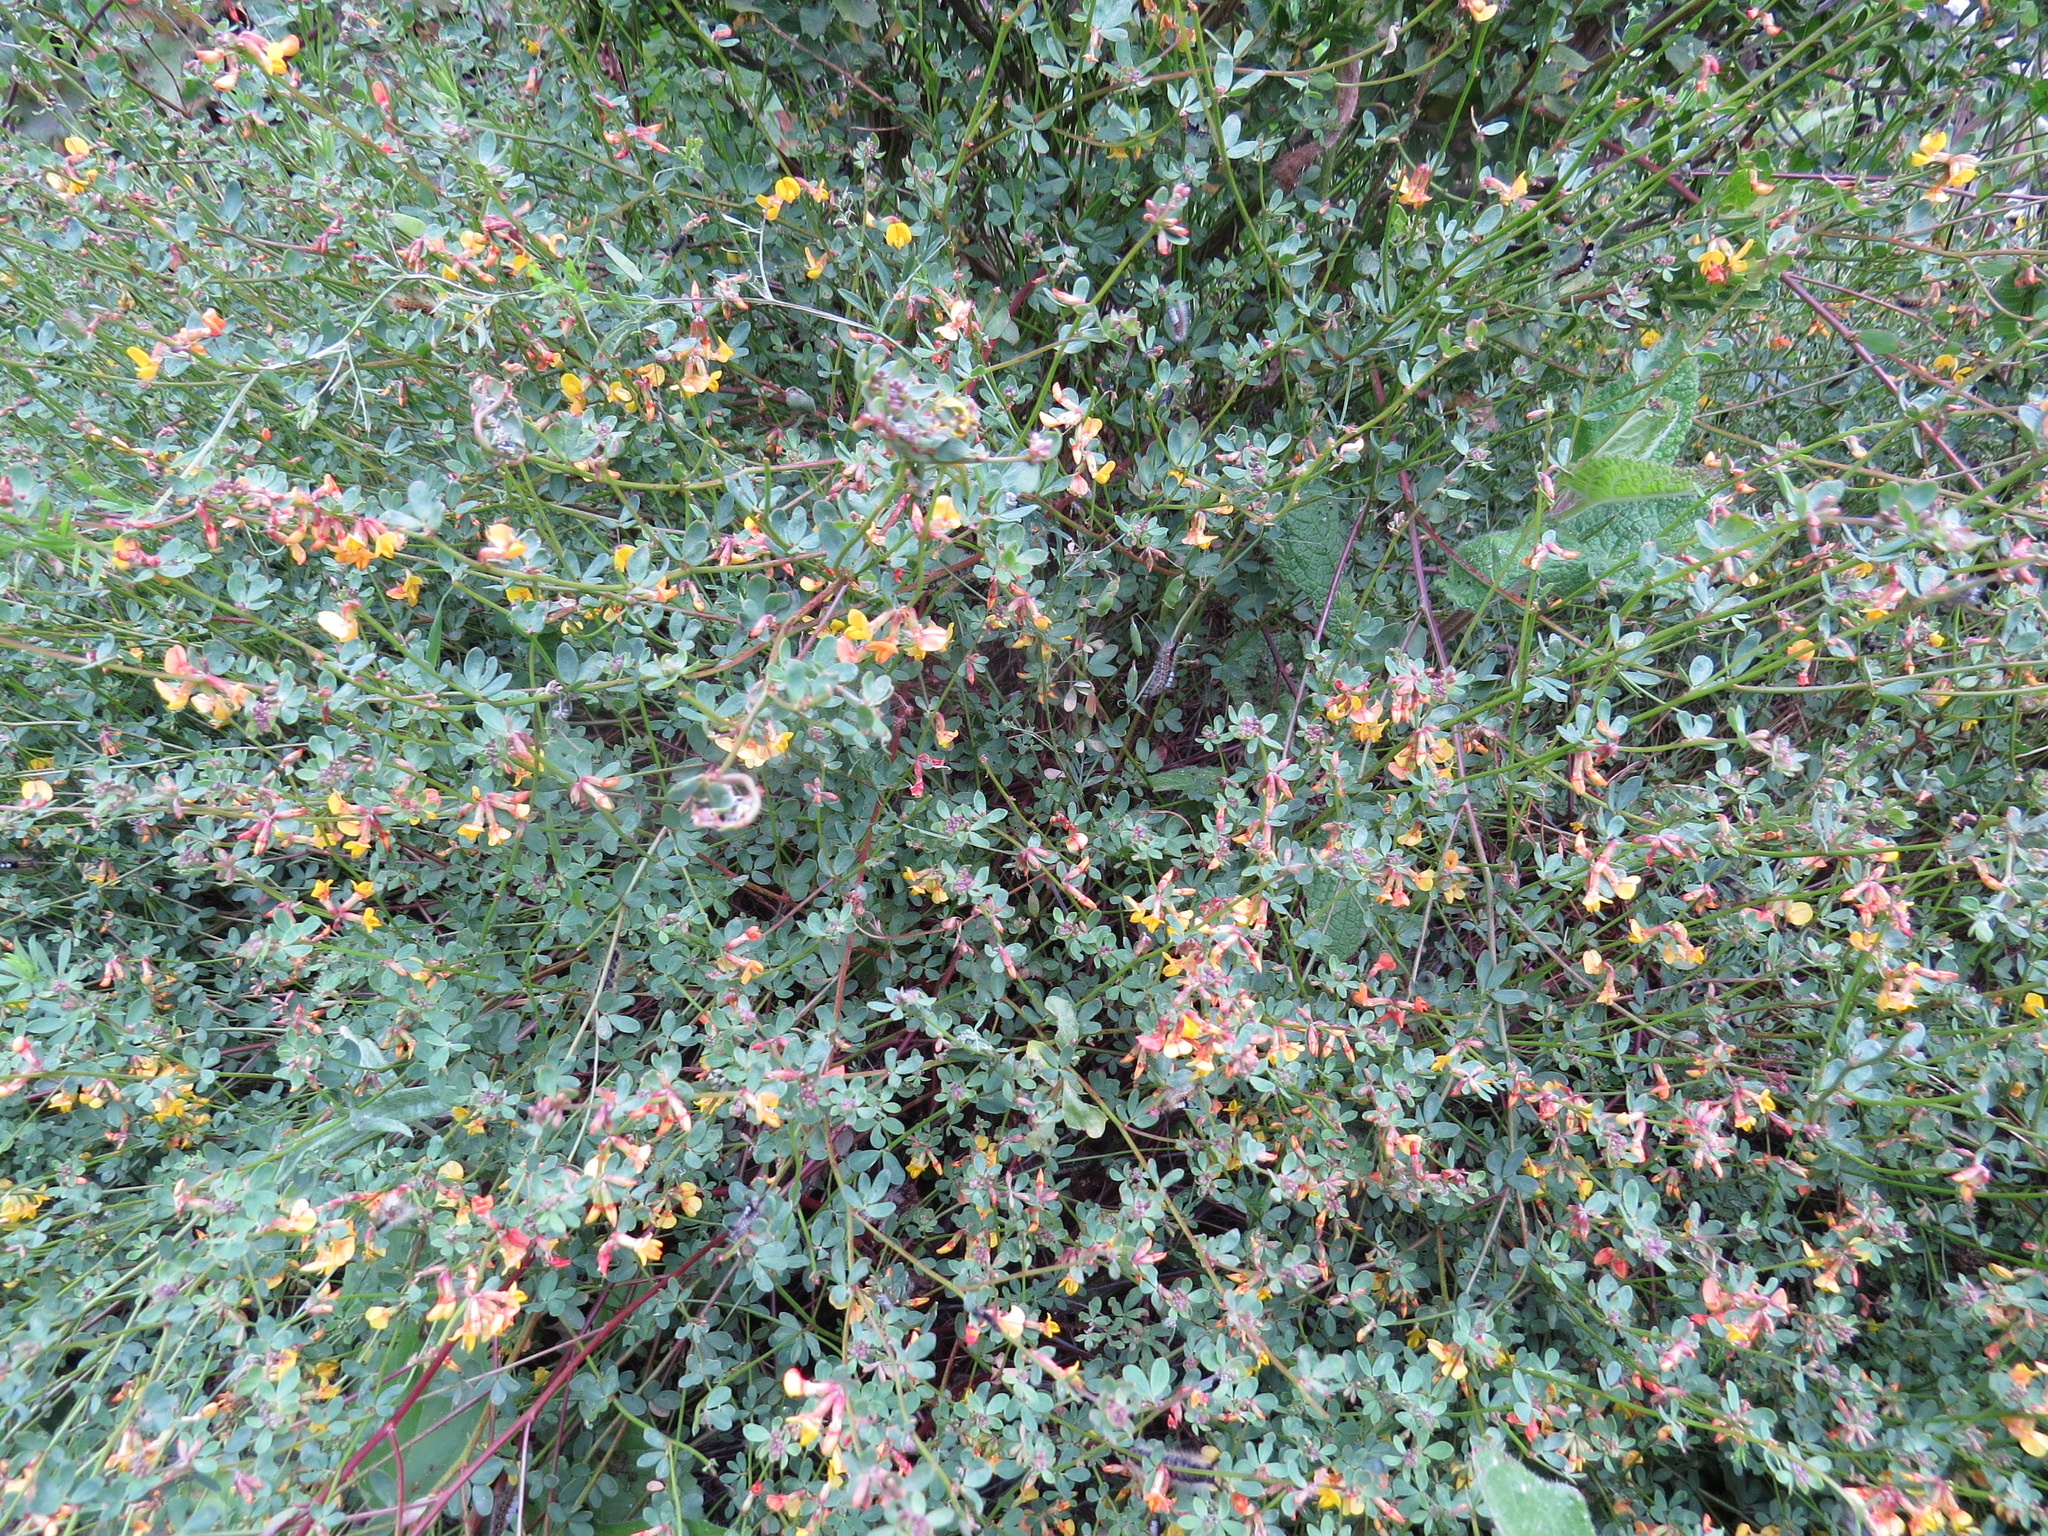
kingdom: Plantae
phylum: Tracheophyta
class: Magnoliopsida
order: Fabales
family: Fabaceae
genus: Acmispon
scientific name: Acmispon glaber
